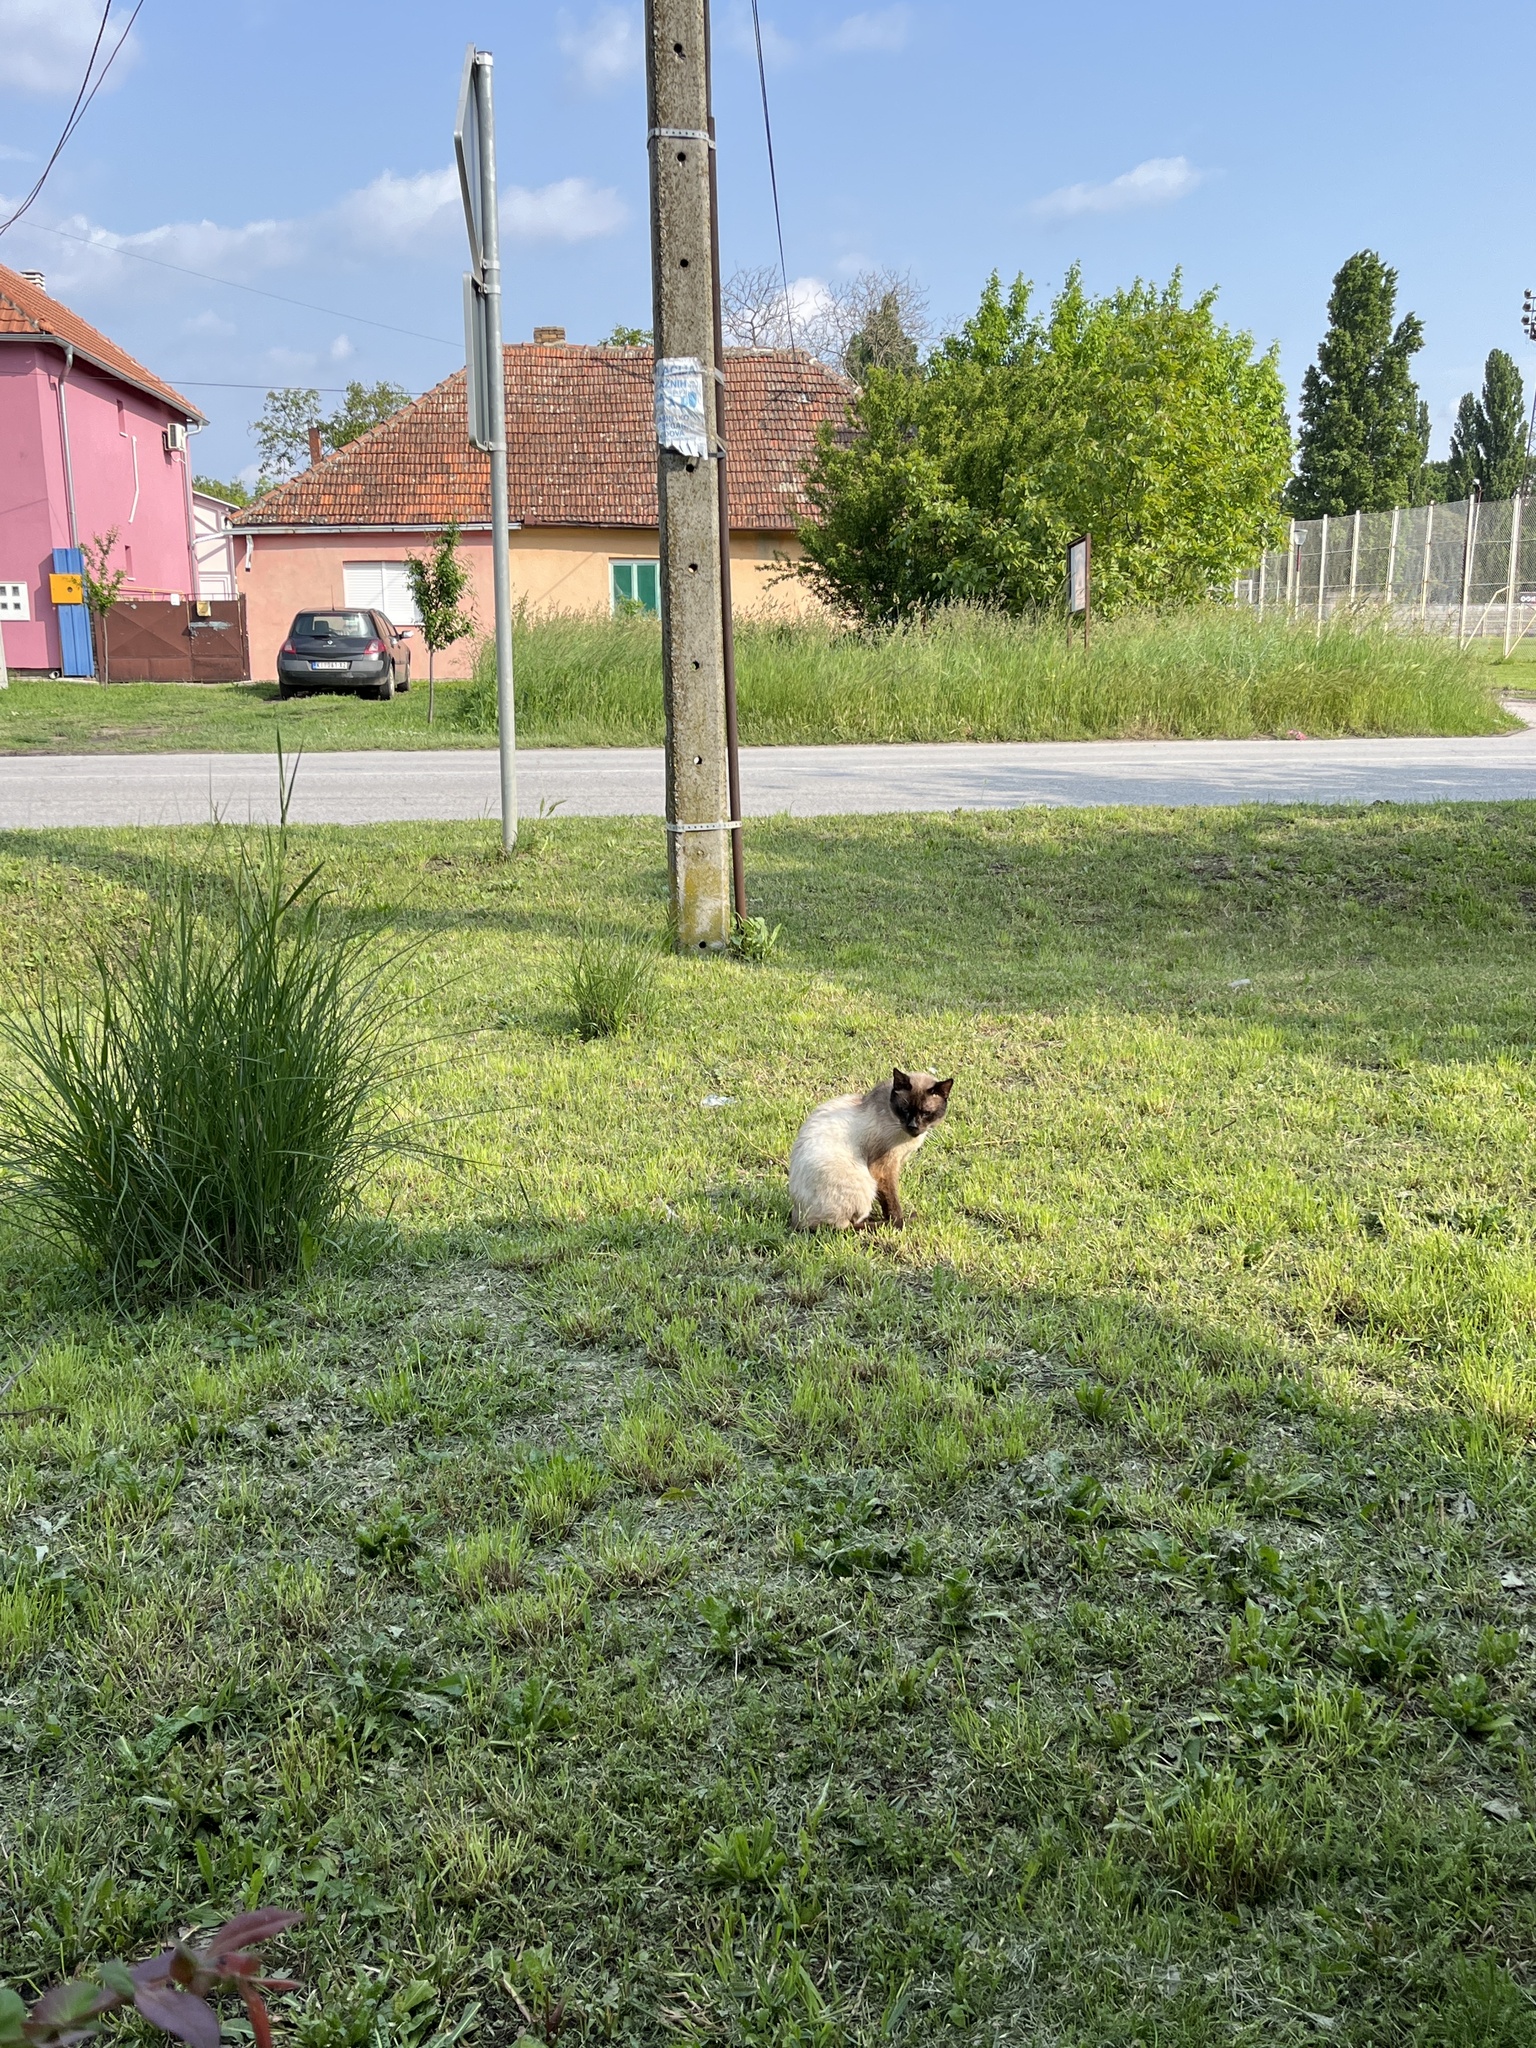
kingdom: Animalia
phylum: Chordata
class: Mammalia
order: Carnivora
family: Felidae
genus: Felis
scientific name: Felis catus
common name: Domestic cat
